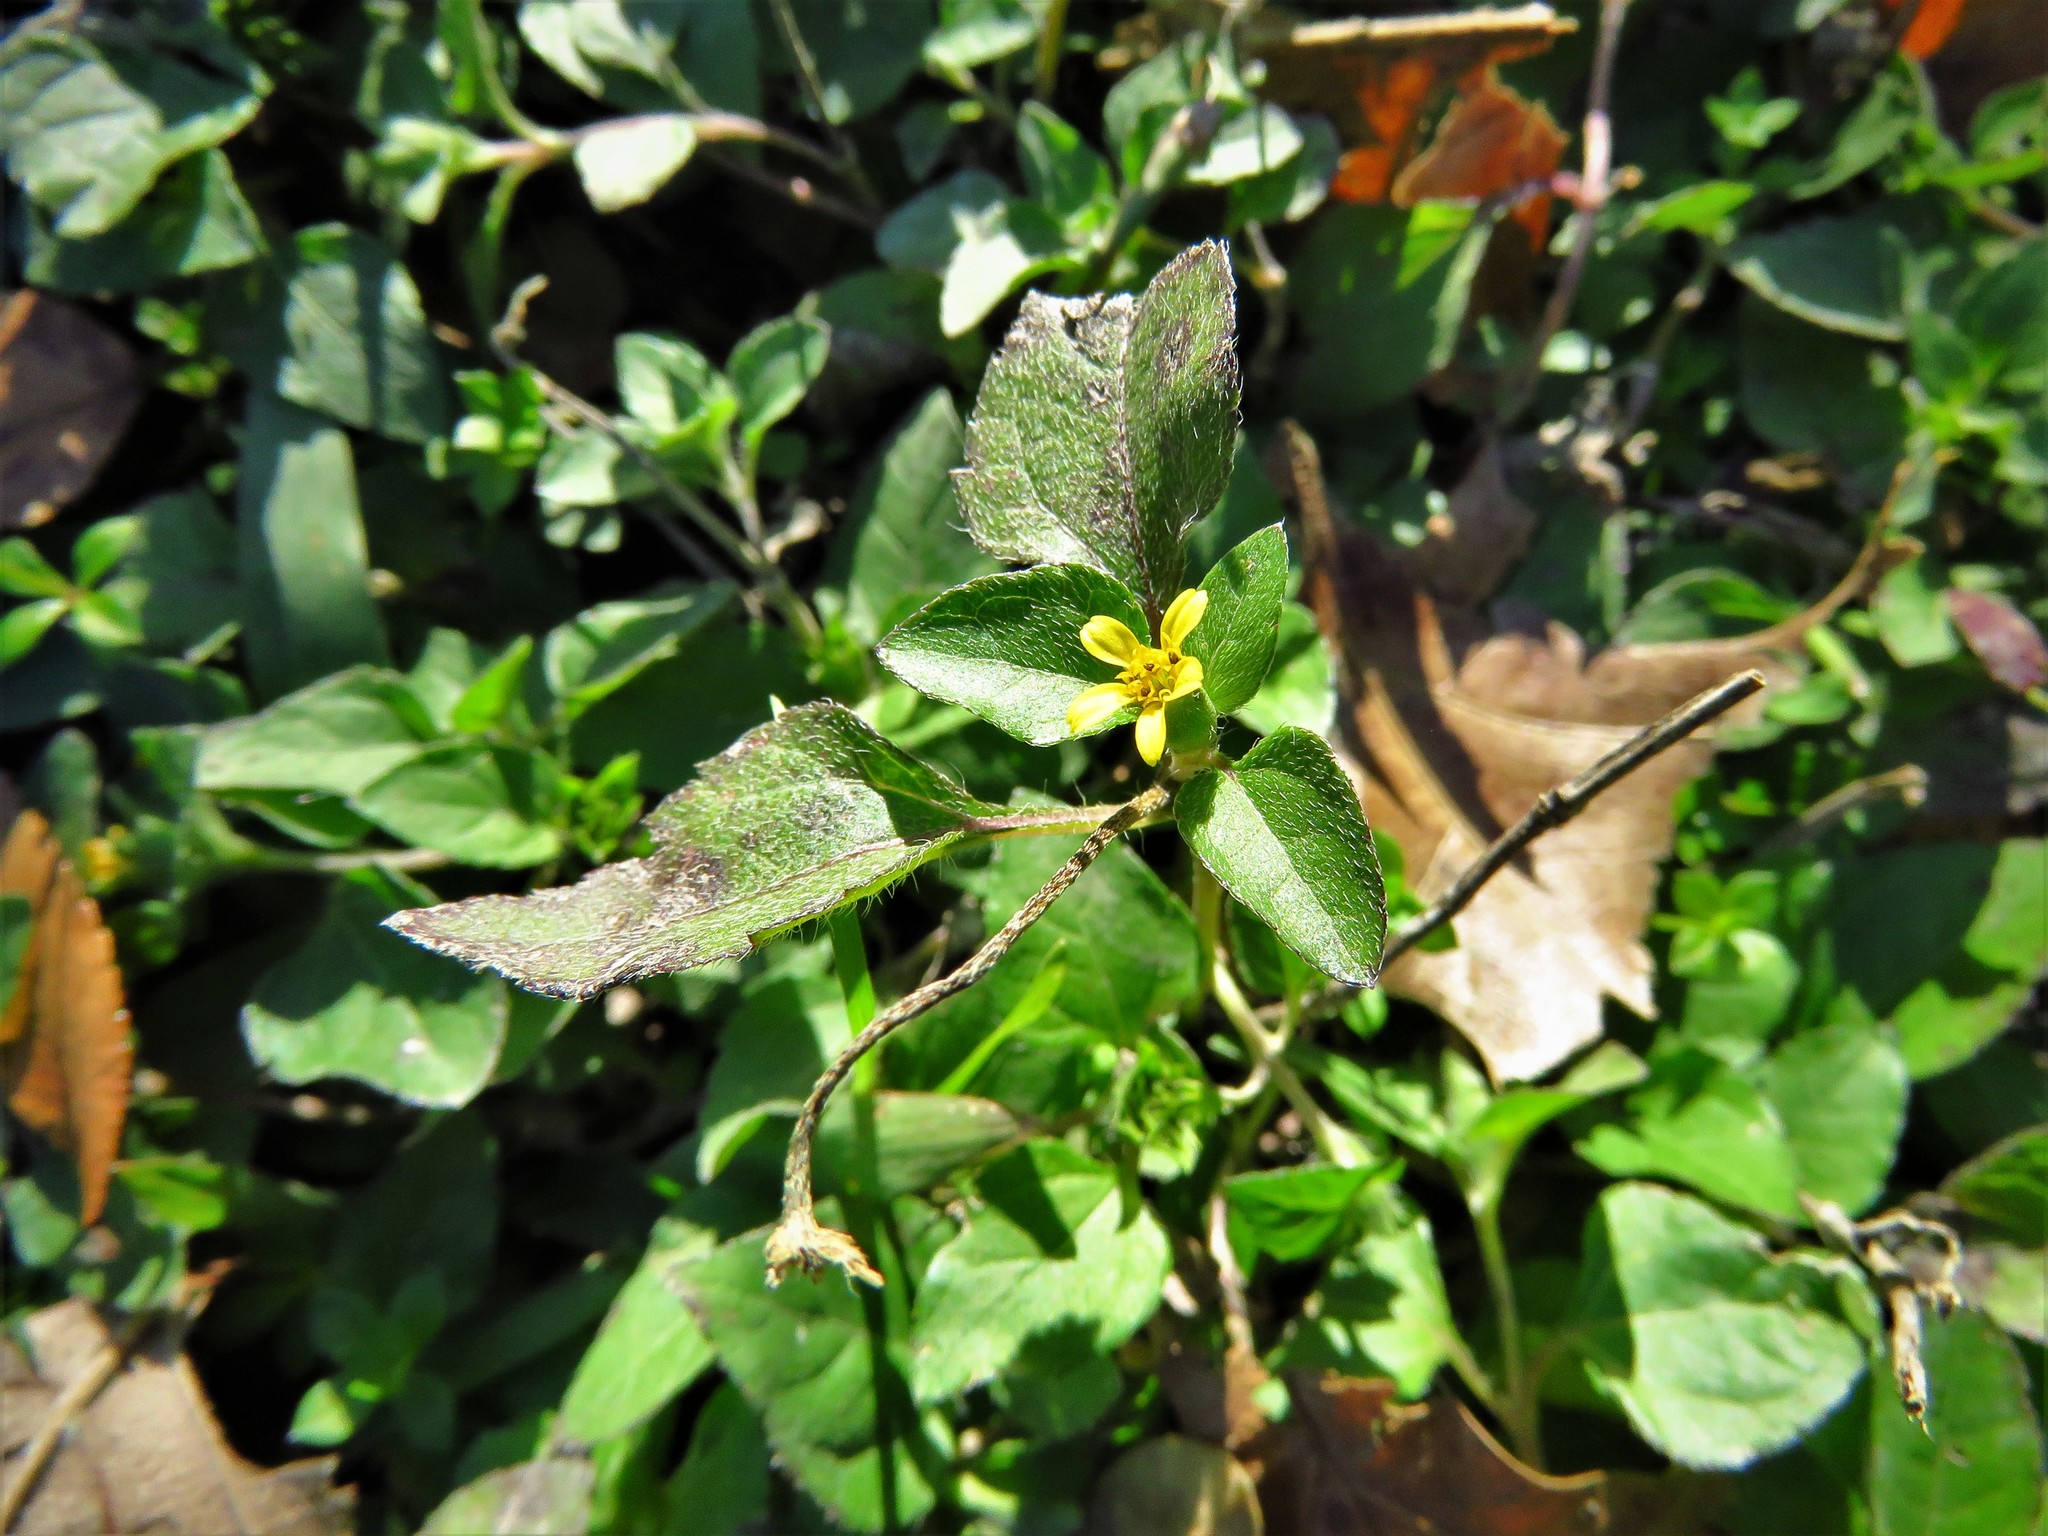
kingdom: Plantae
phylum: Tracheophyta
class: Magnoliopsida
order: Asterales
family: Asteraceae
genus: Calyptocarpus
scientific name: Calyptocarpus vialis
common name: Straggler daisy
